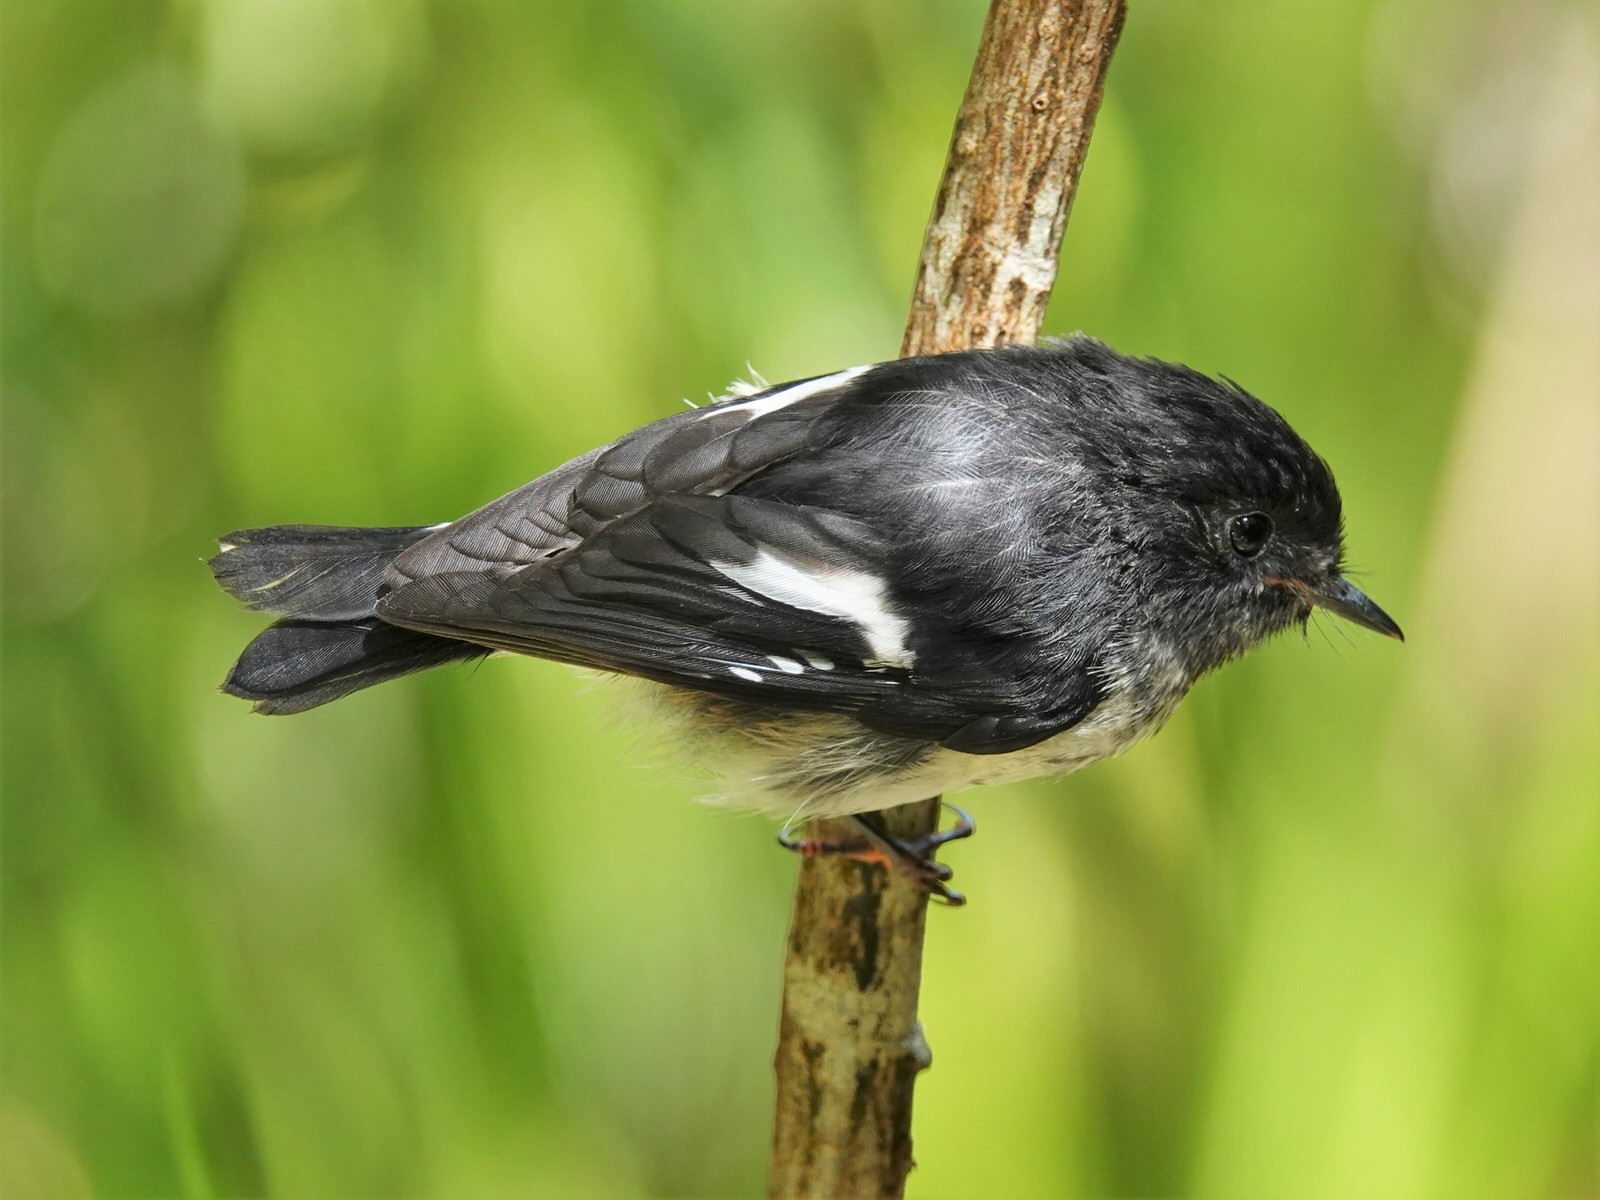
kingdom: Animalia
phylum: Chordata
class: Aves
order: Passeriformes
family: Petroicidae
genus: Petroica
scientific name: Petroica macrocephala
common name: Tomtit
